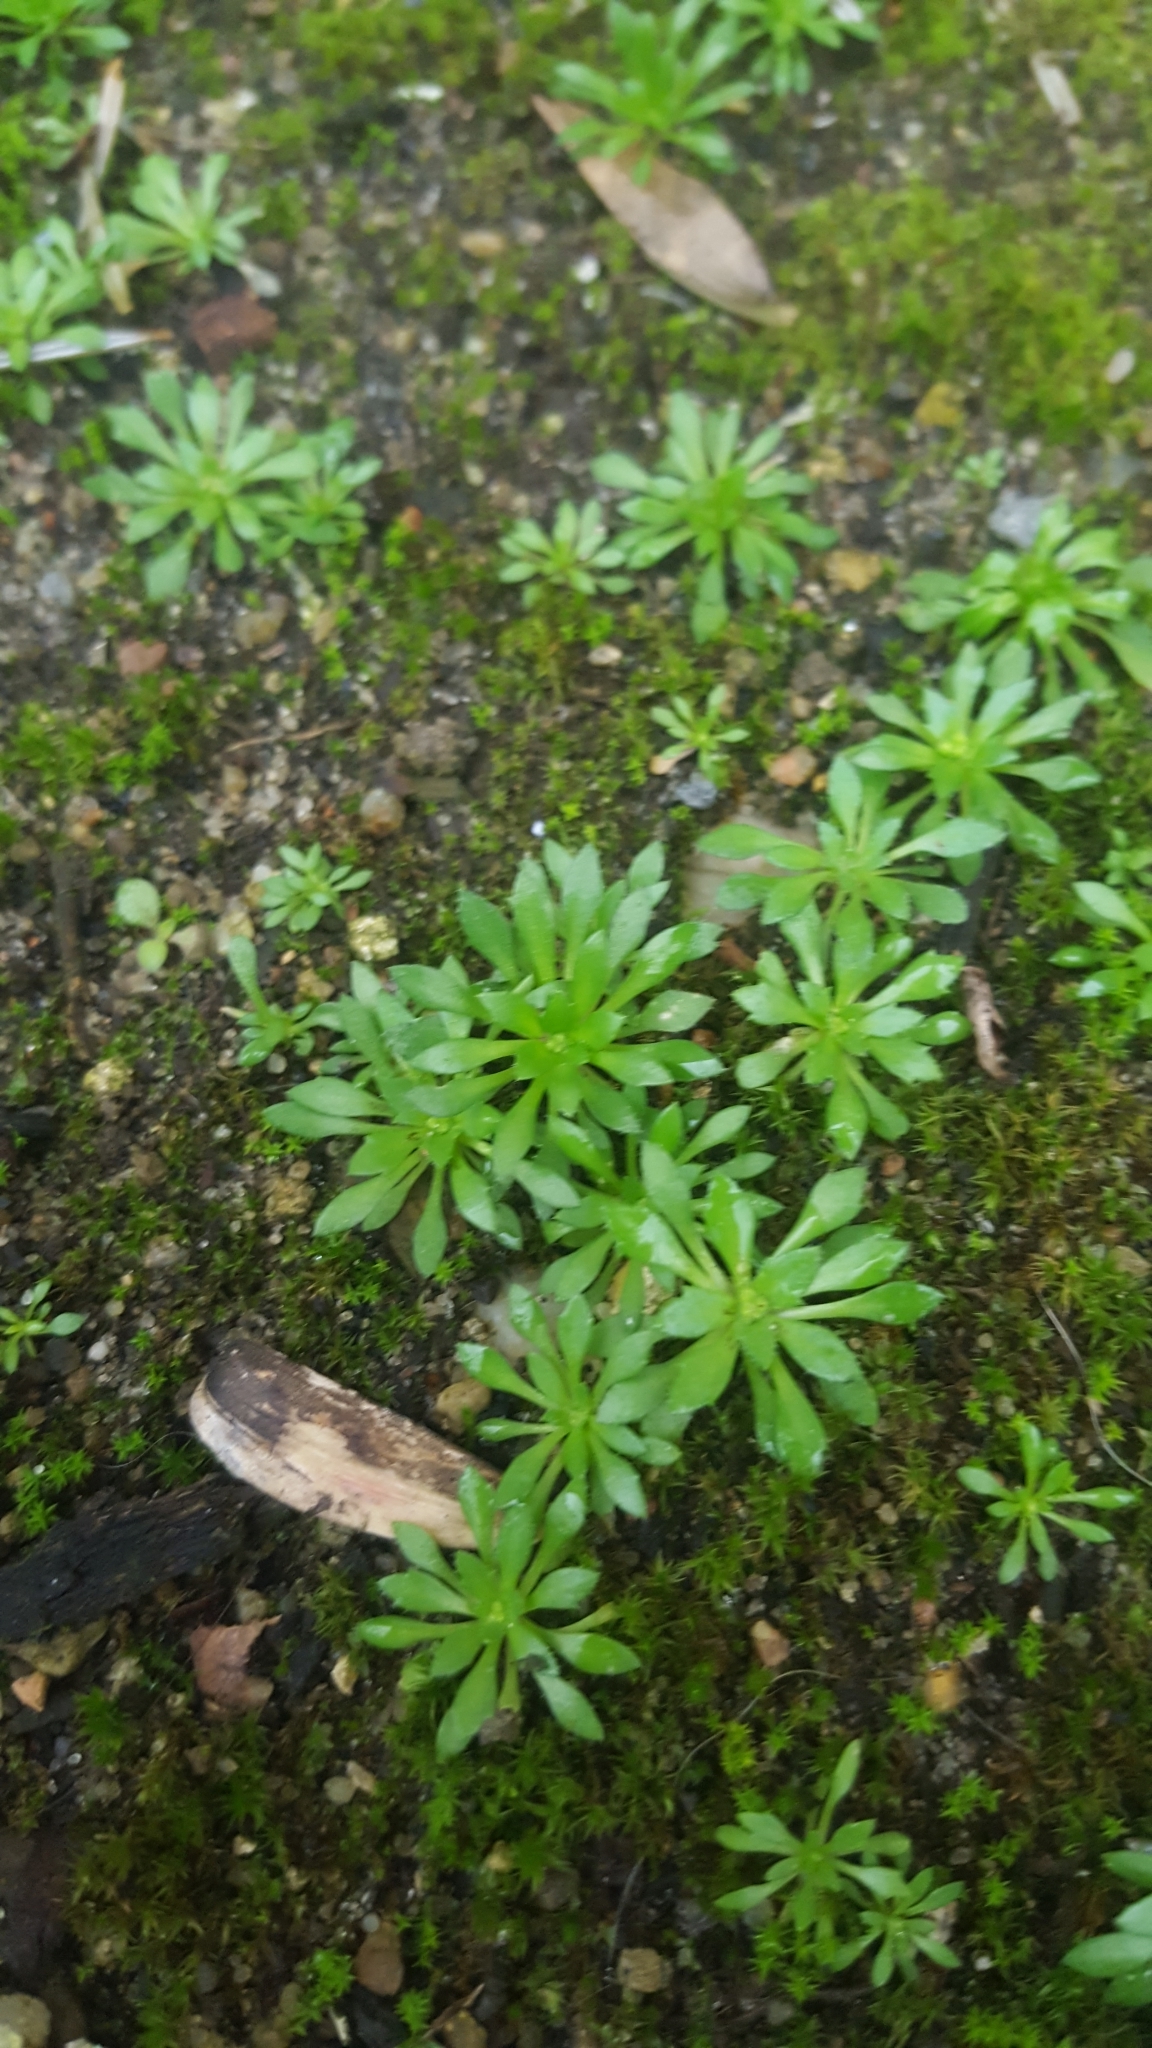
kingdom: Plantae
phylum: Tracheophyta
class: Magnoliopsida
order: Brassicales
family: Brassicaceae
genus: Draba
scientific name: Draba verna
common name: Spring draba
